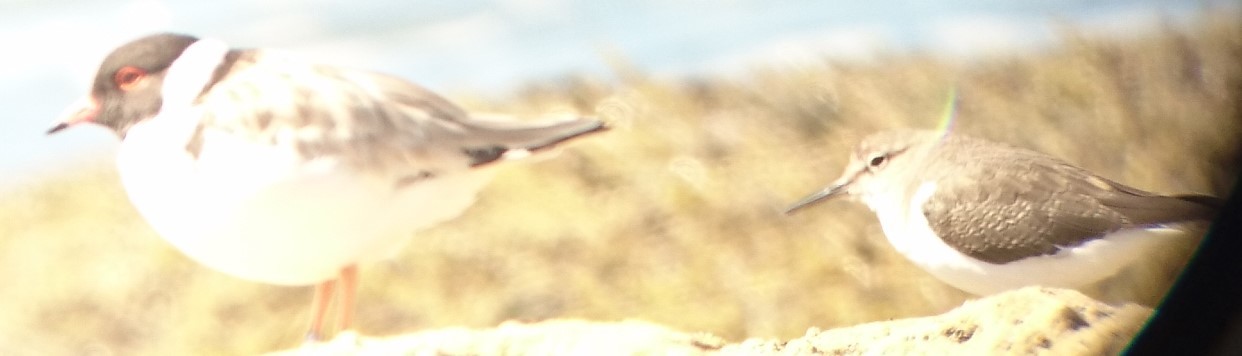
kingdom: Animalia
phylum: Chordata
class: Aves
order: Charadriiformes
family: Scolopacidae
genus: Actitis
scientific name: Actitis hypoleucos
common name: Common sandpiper
